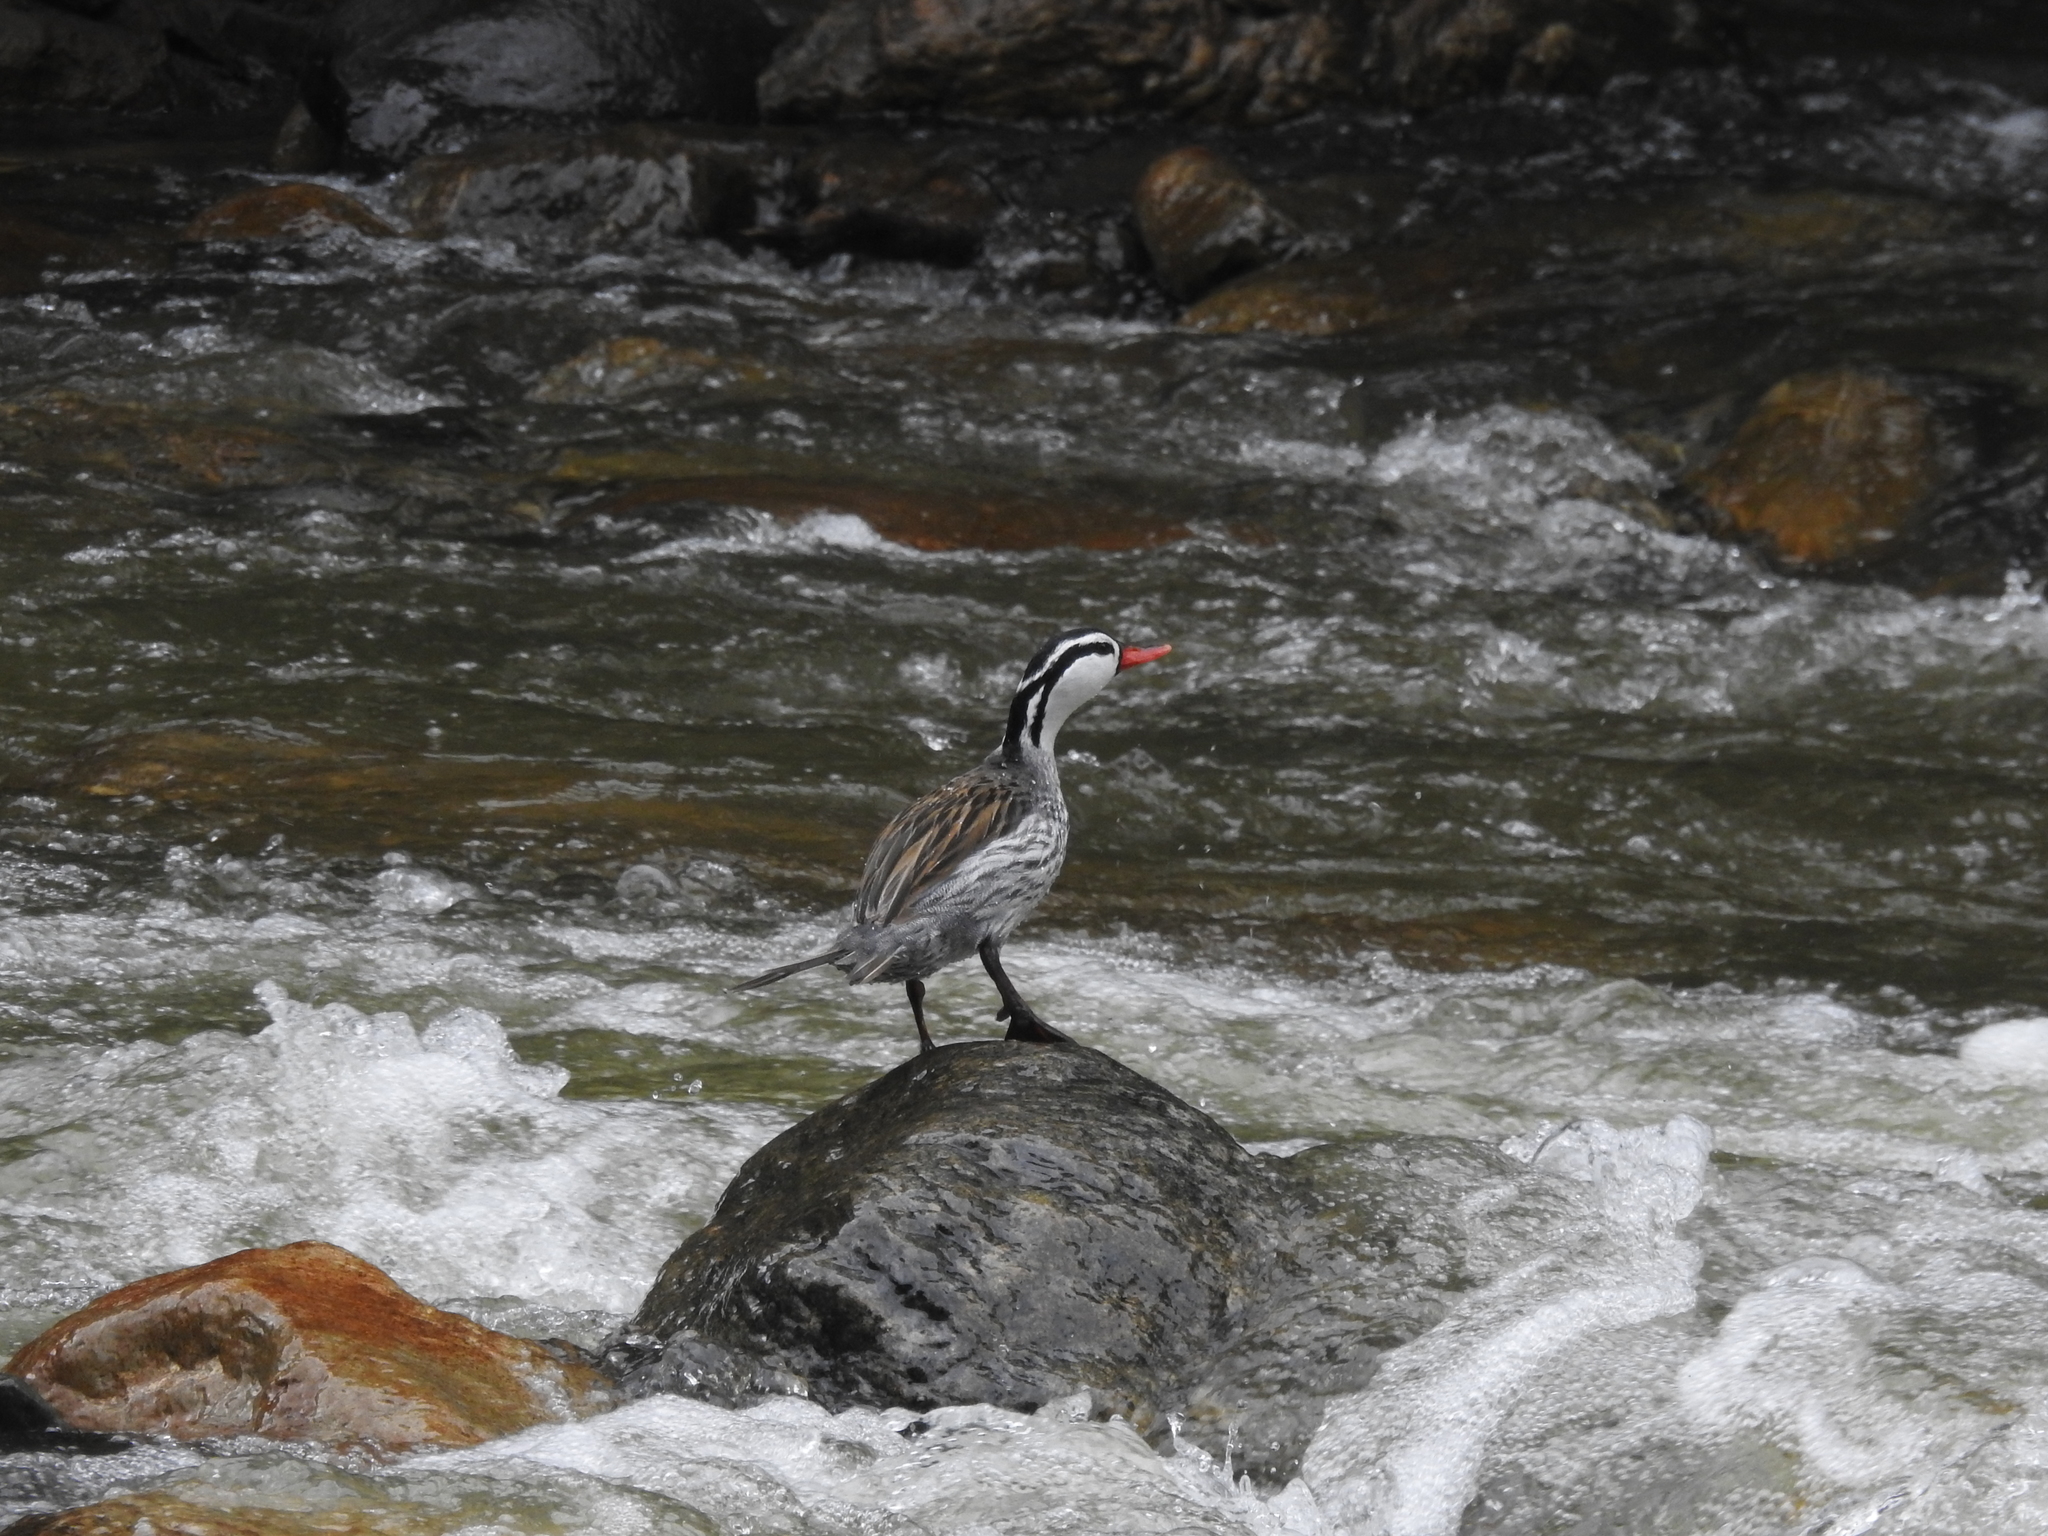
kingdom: Animalia
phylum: Chordata
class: Aves
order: Anseriformes
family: Anatidae
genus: Merganetta
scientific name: Merganetta armata
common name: Torrent duck
